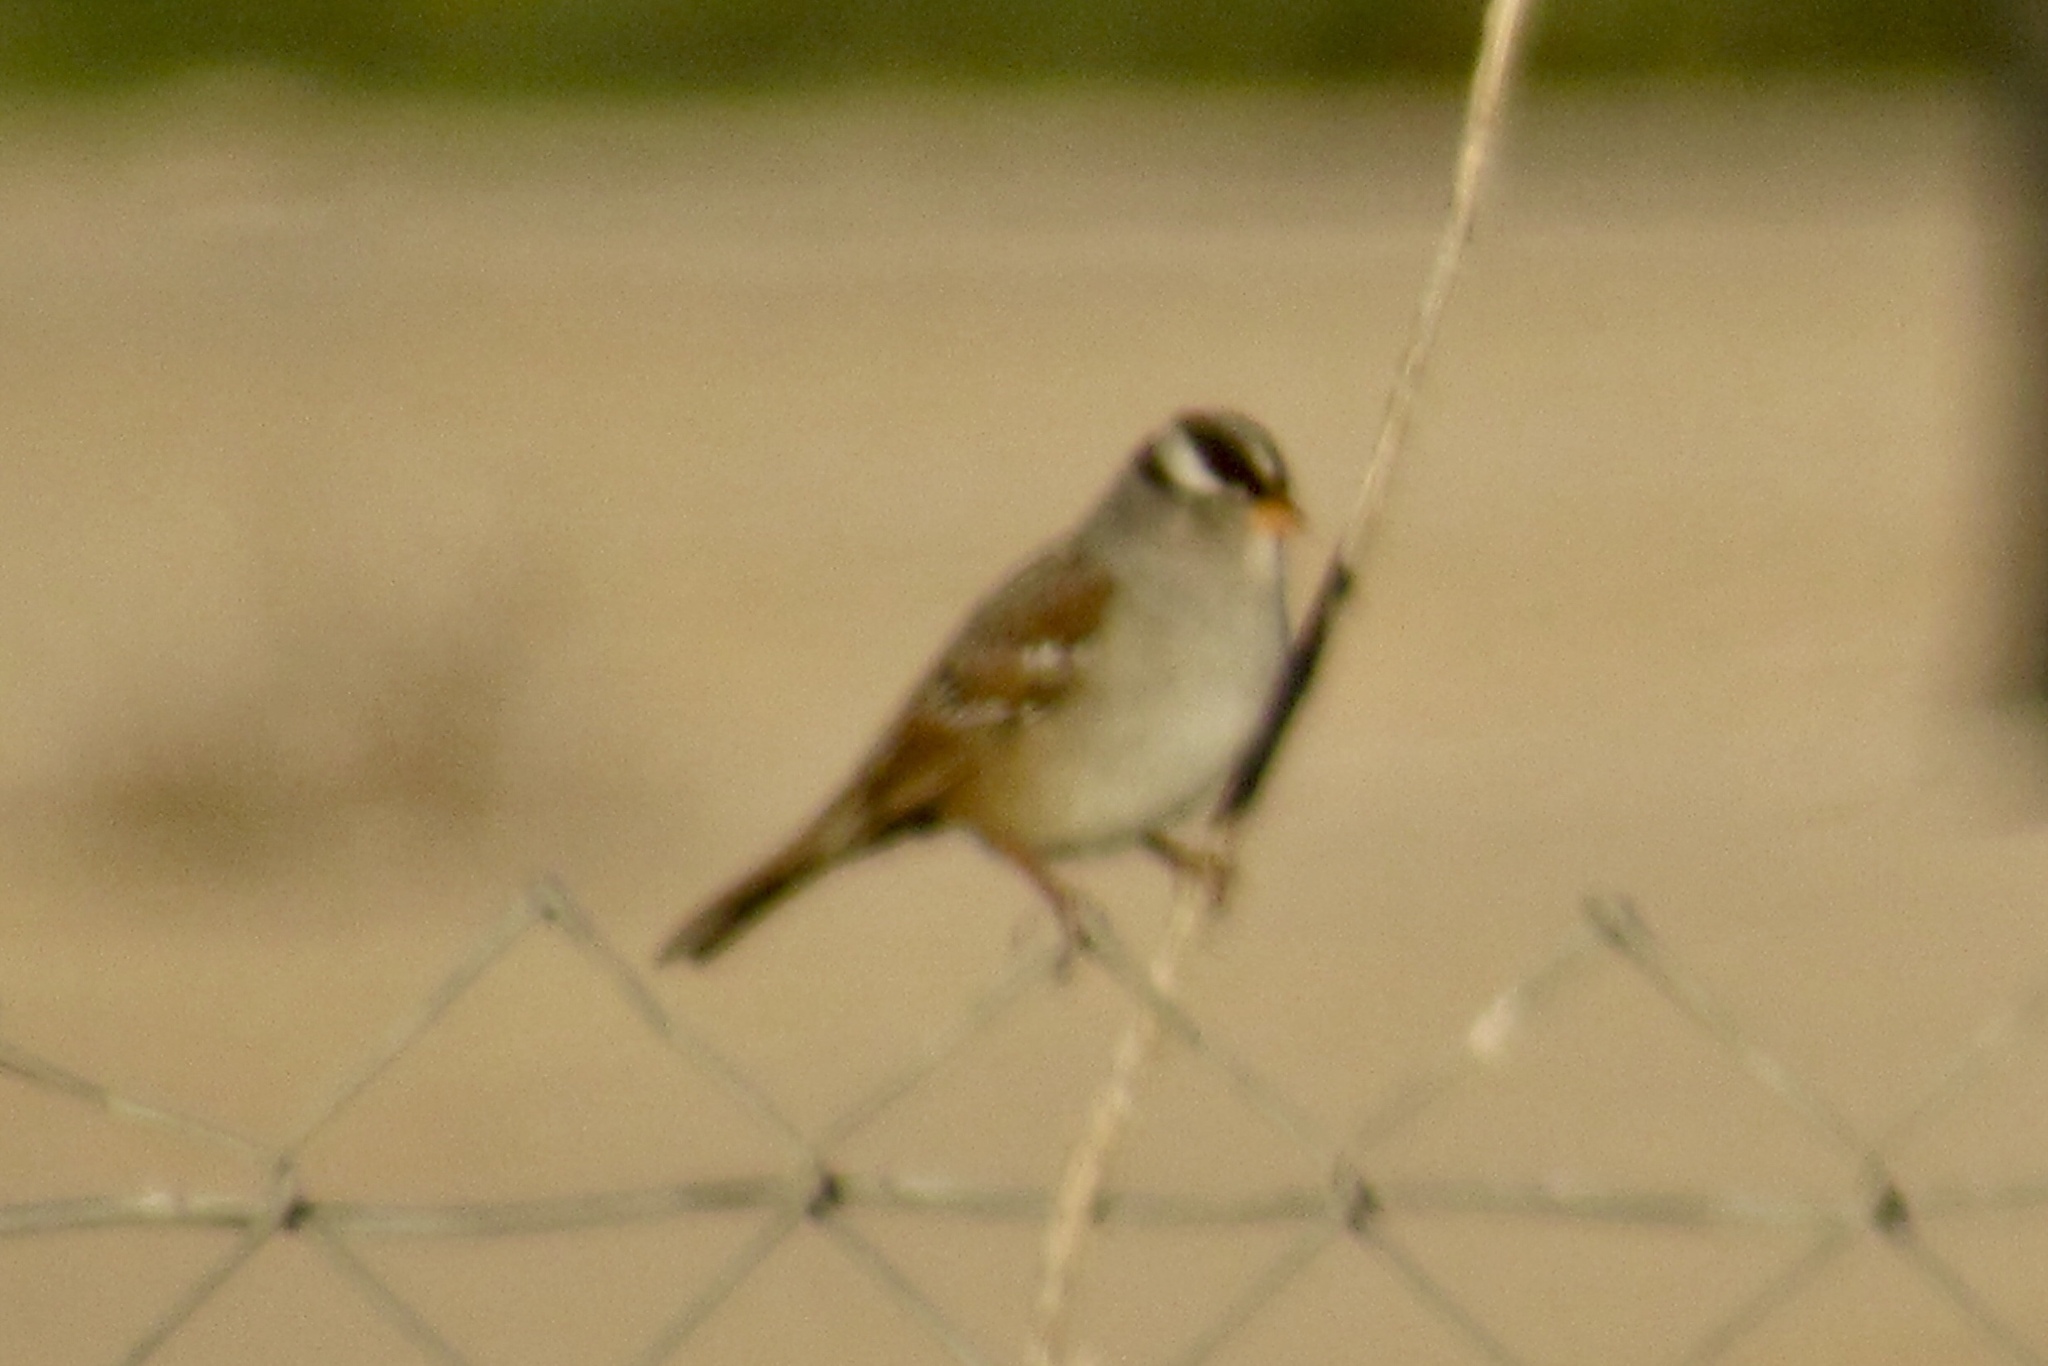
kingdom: Animalia
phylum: Chordata
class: Aves
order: Passeriformes
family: Passerellidae
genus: Zonotrichia
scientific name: Zonotrichia leucophrys
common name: White-crowned sparrow
